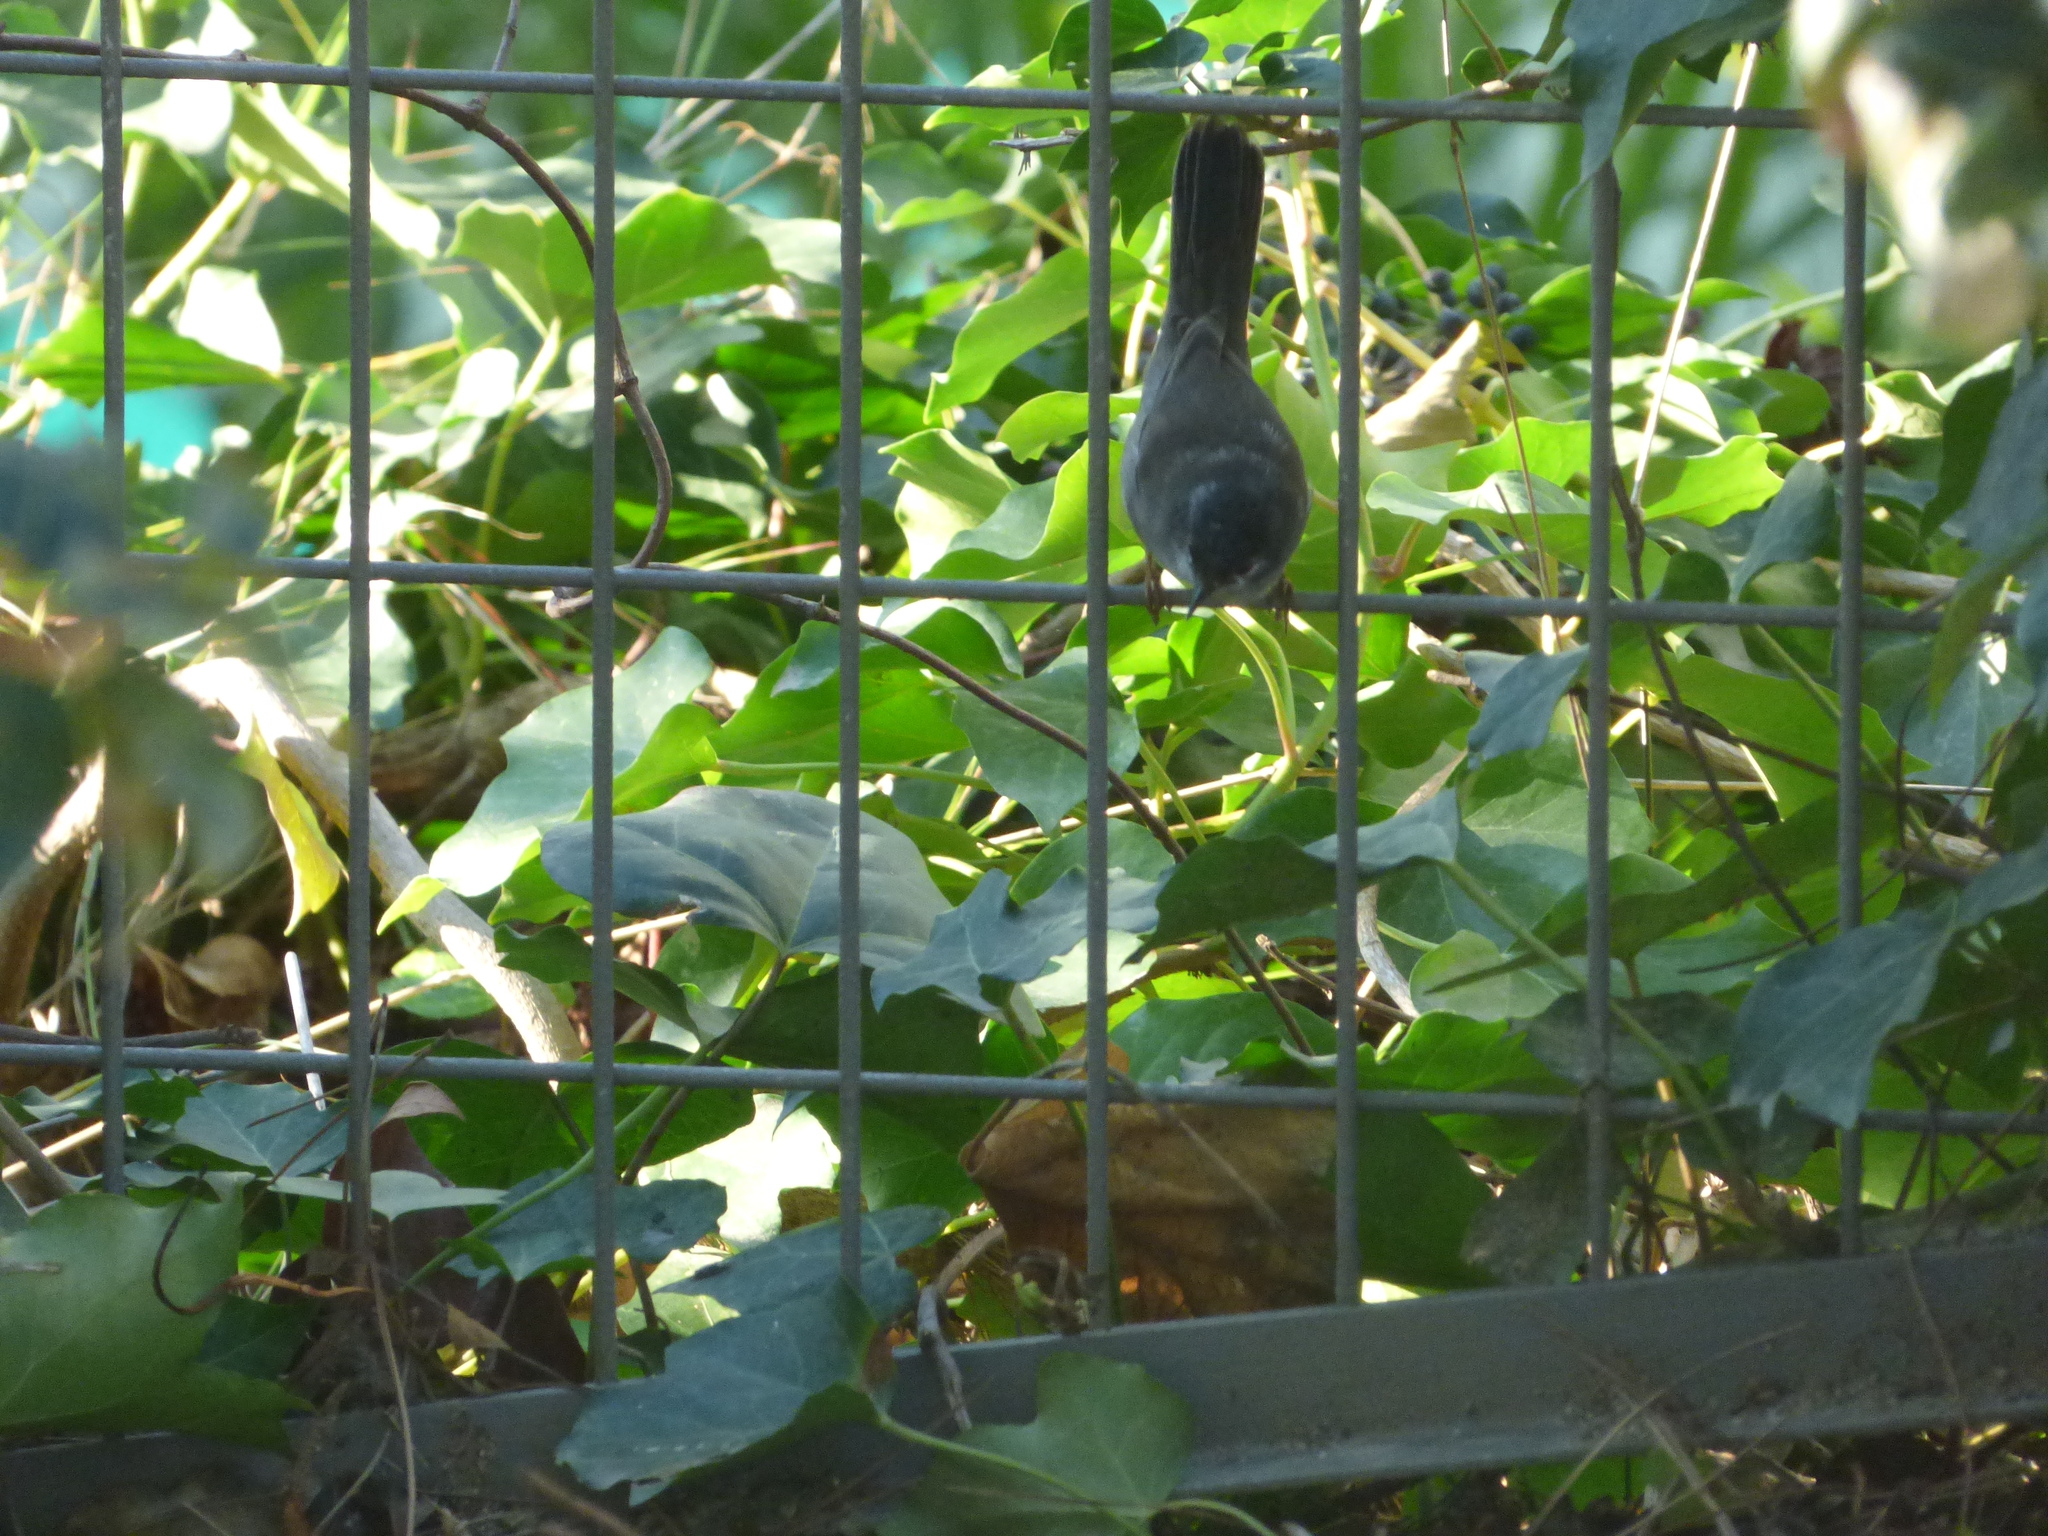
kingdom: Animalia
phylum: Chordata
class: Aves
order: Passeriformes
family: Sylviidae
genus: Curruca
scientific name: Curruca melanocephala
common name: Sardinian warbler
